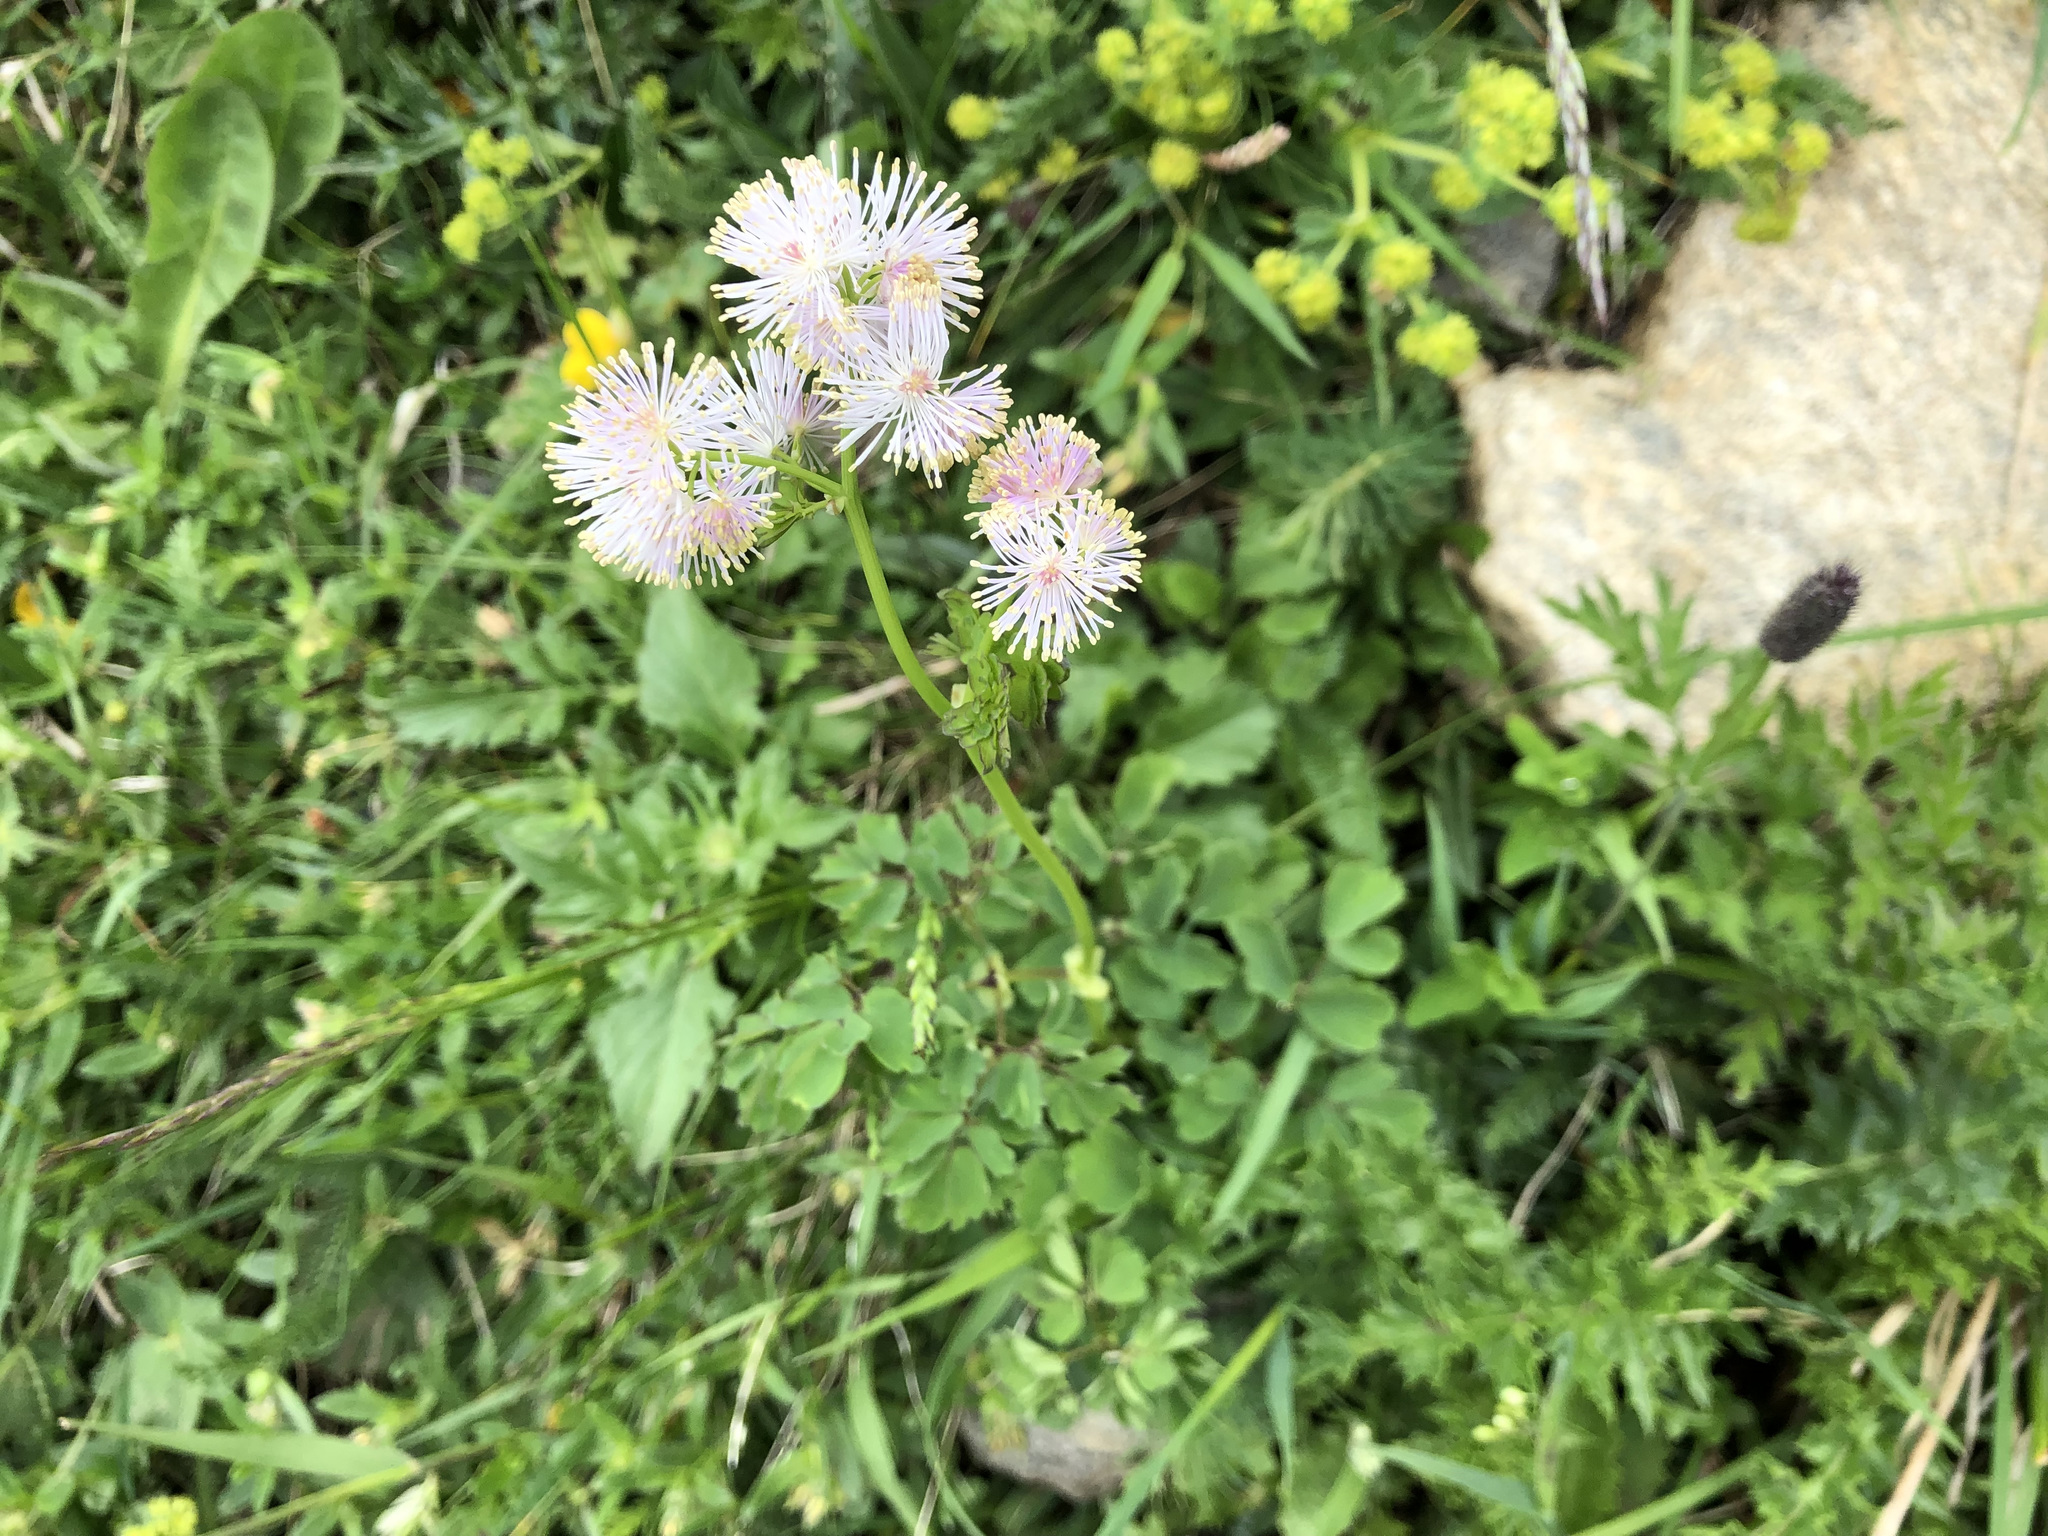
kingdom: Plantae
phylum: Tracheophyta
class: Magnoliopsida
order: Ranunculales
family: Ranunculaceae
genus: Thalictrum
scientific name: Thalictrum aquilegiifolium
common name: French meadow-rue
